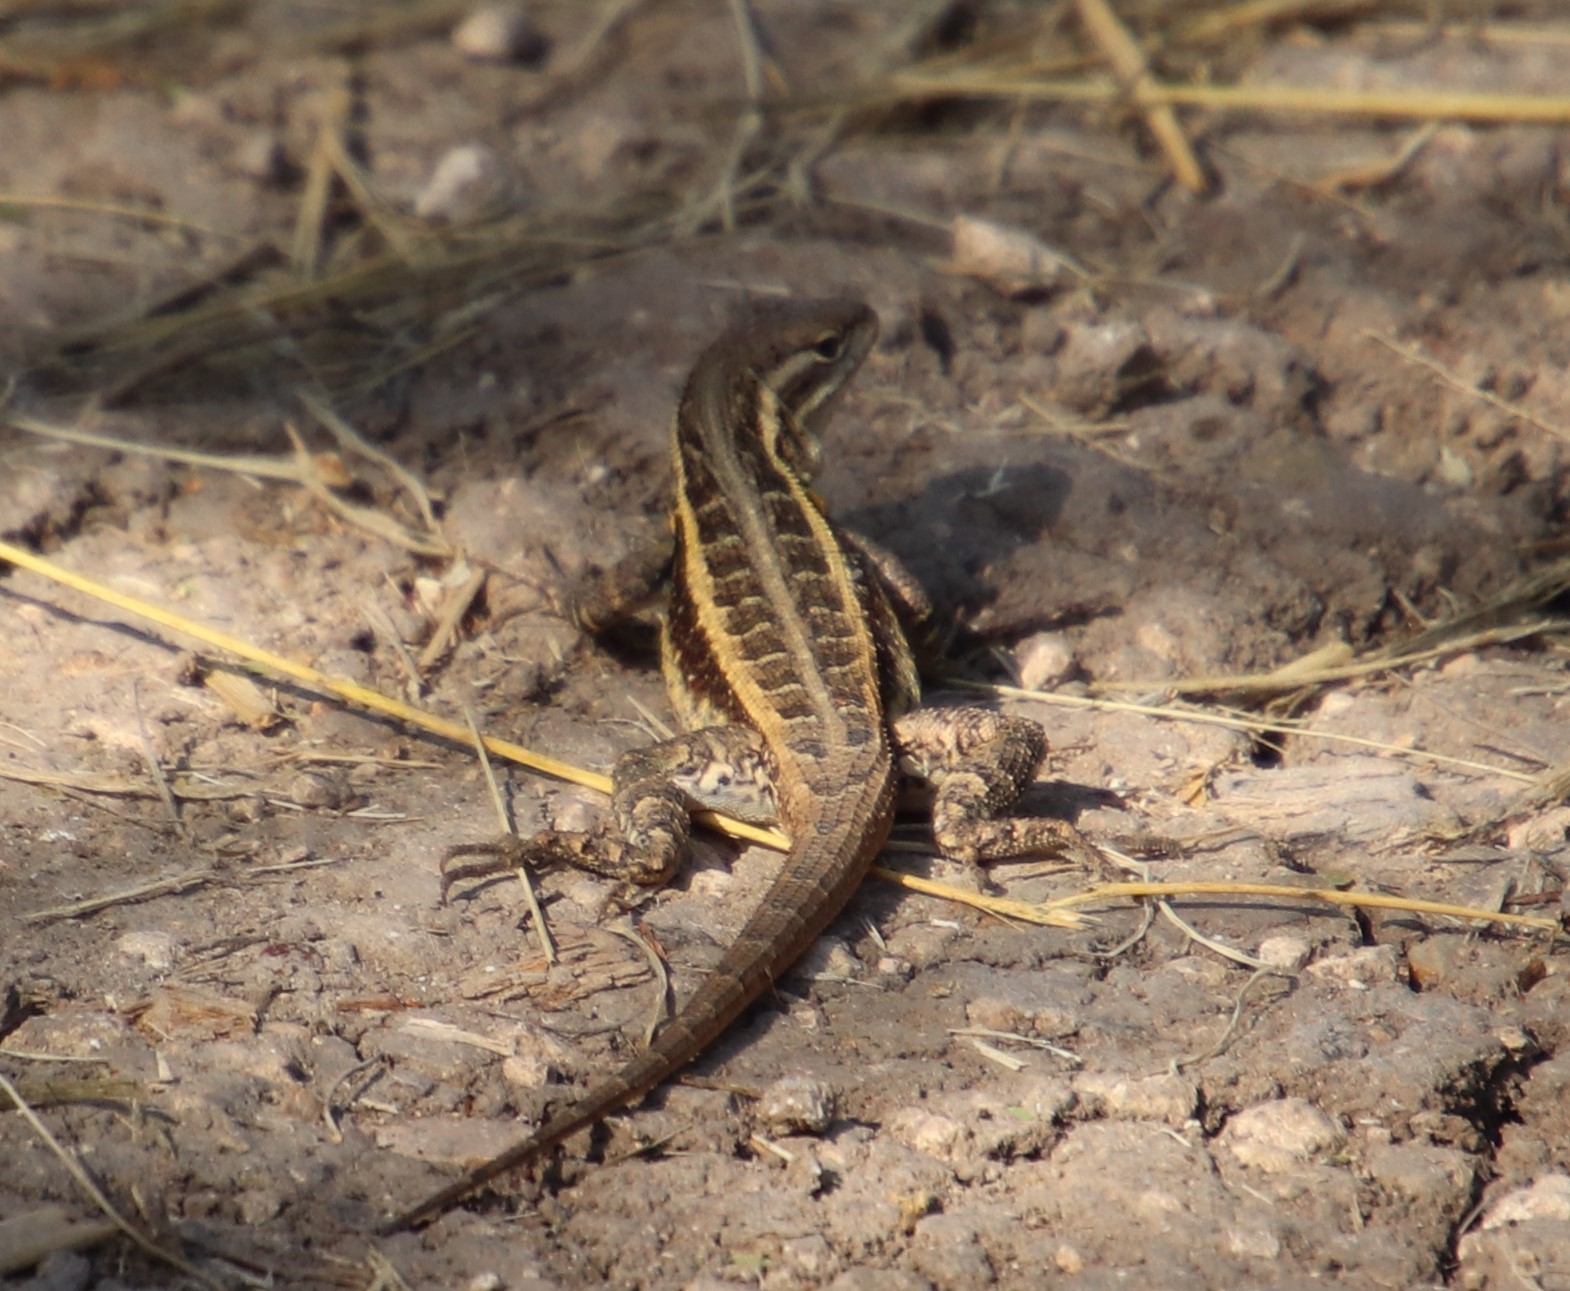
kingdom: Animalia
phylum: Chordata
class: Squamata
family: Phrynosomatidae
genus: Sceloporus
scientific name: Sceloporus variabilis
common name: Rosebelly lizard
